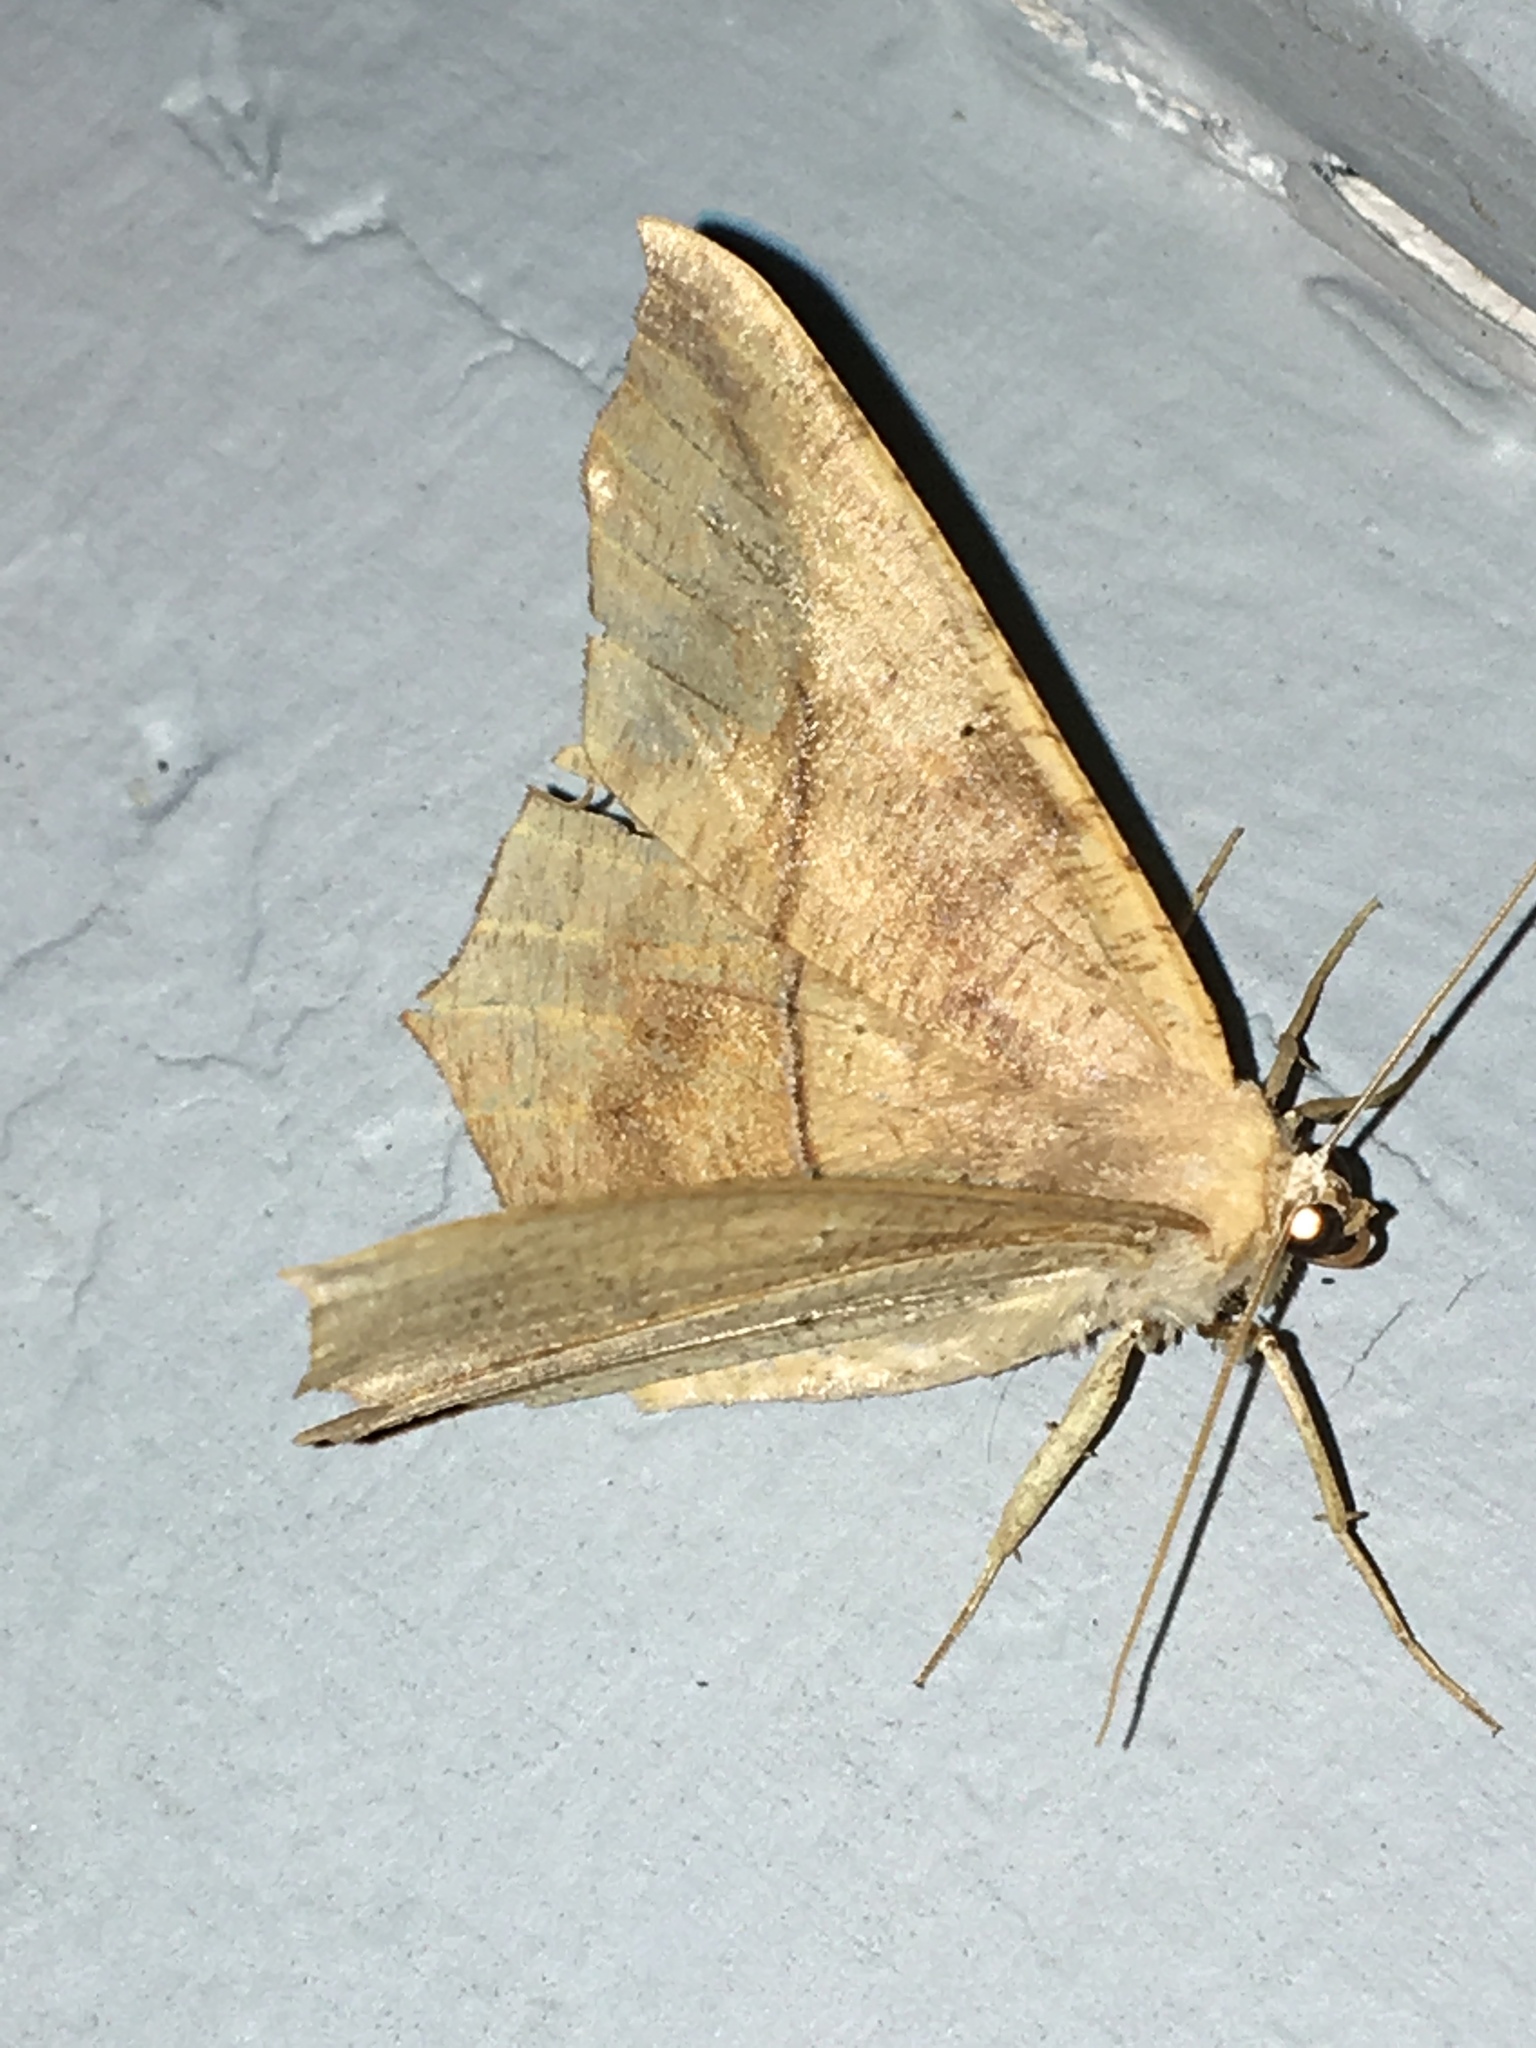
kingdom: Animalia
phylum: Arthropoda
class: Insecta
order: Lepidoptera
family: Geometridae
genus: Prochoerodes
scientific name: Prochoerodes lineola
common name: Large maple spanworm
